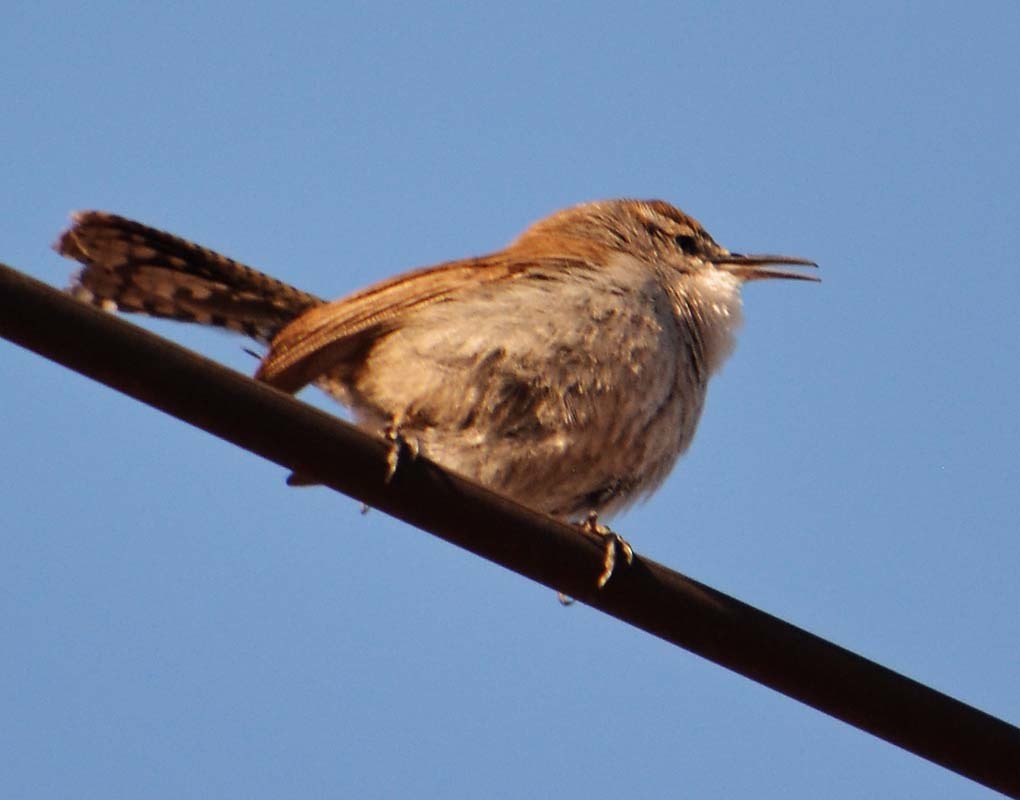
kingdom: Animalia
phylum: Chordata
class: Aves
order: Passeriformes
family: Troglodytidae
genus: Thryomanes
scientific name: Thryomanes bewickii
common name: Bewick's wren
